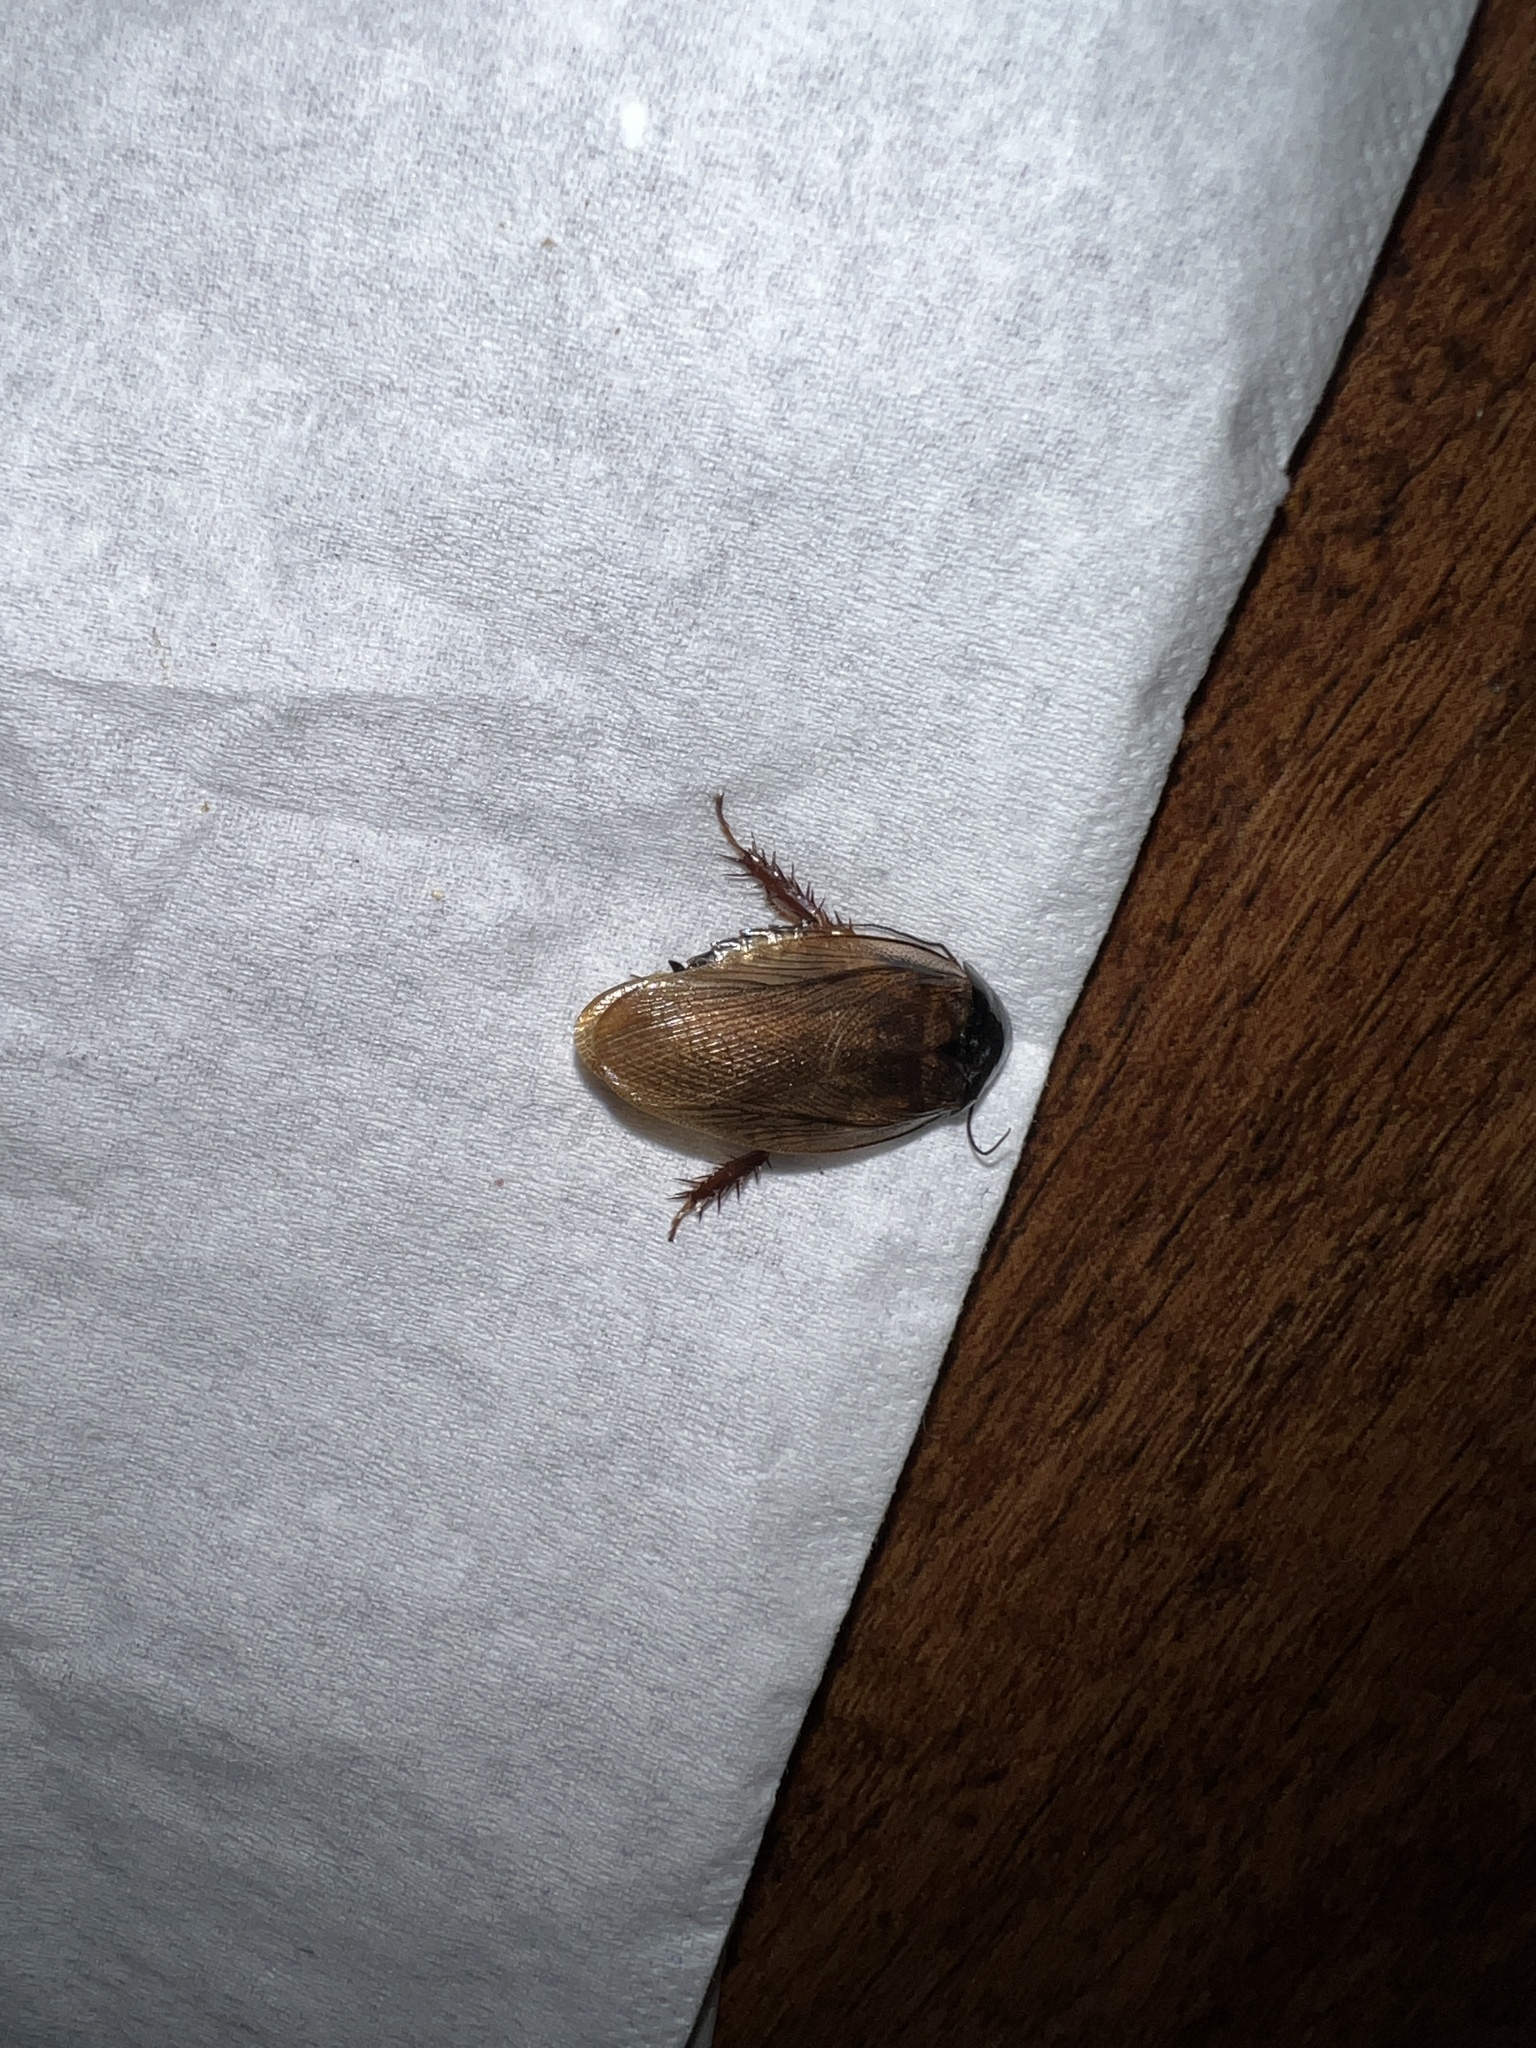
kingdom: Animalia
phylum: Arthropoda
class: Insecta
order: Blattodea
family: Blaberidae
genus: Pycnoscelus
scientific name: Pycnoscelus surinamensis
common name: Surinam cockroach
